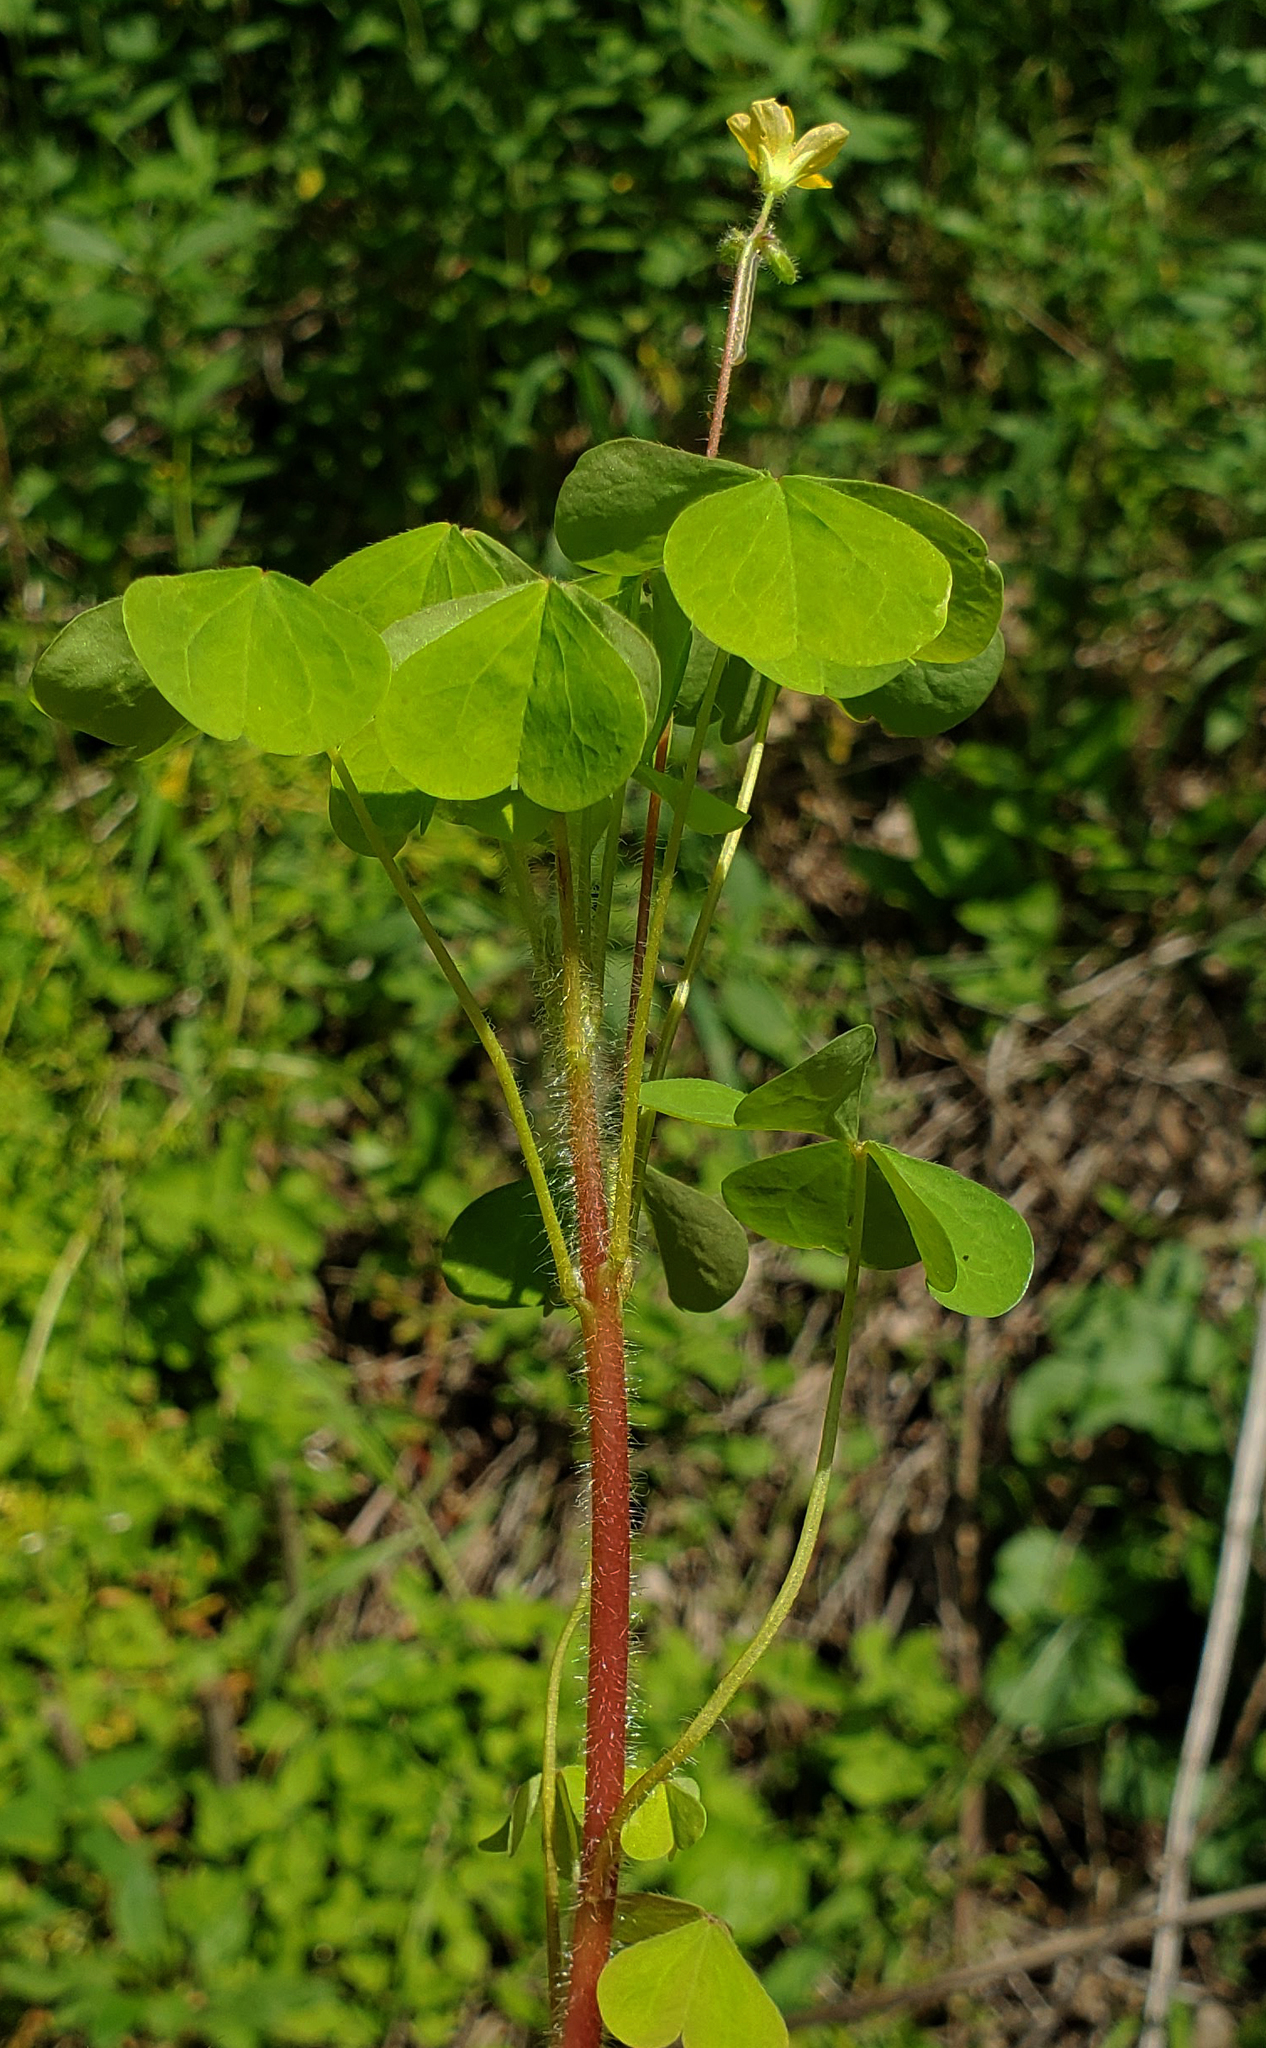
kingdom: Plantae
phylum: Tracheophyta
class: Magnoliopsida
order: Oxalidales
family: Oxalidaceae
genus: Oxalis
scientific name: Oxalis stricta
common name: Upright yellow-sorrel
